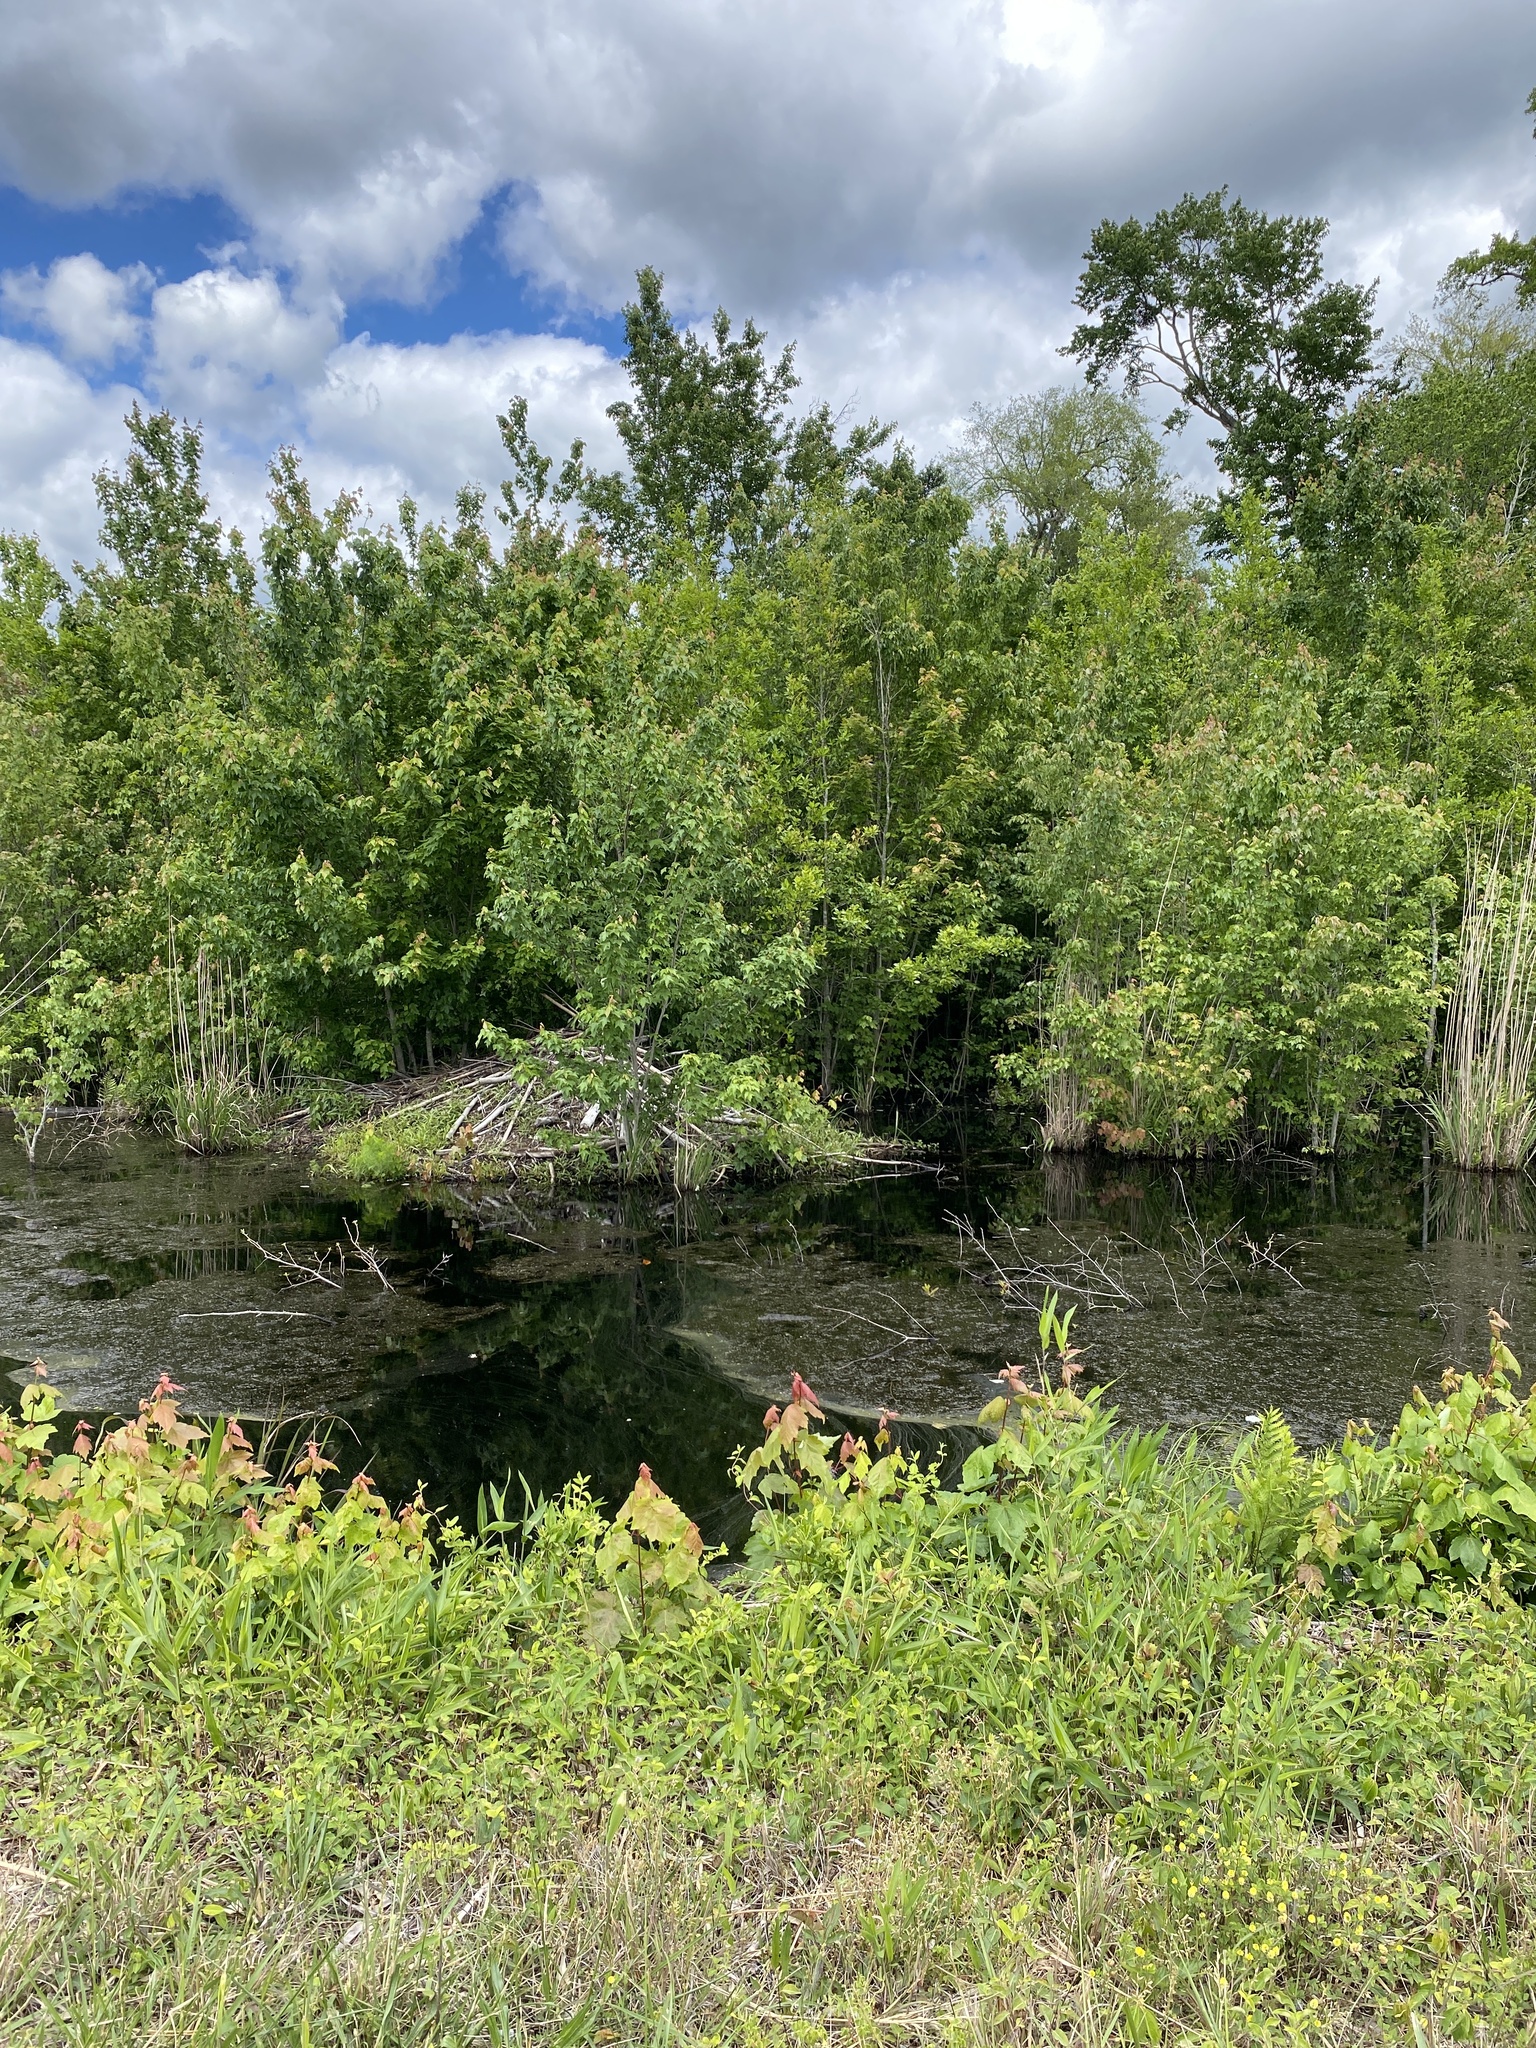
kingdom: Animalia
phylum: Chordata
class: Mammalia
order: Rodentia
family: Castoridae
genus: Castor
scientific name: Castor canadensis
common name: American beaver
